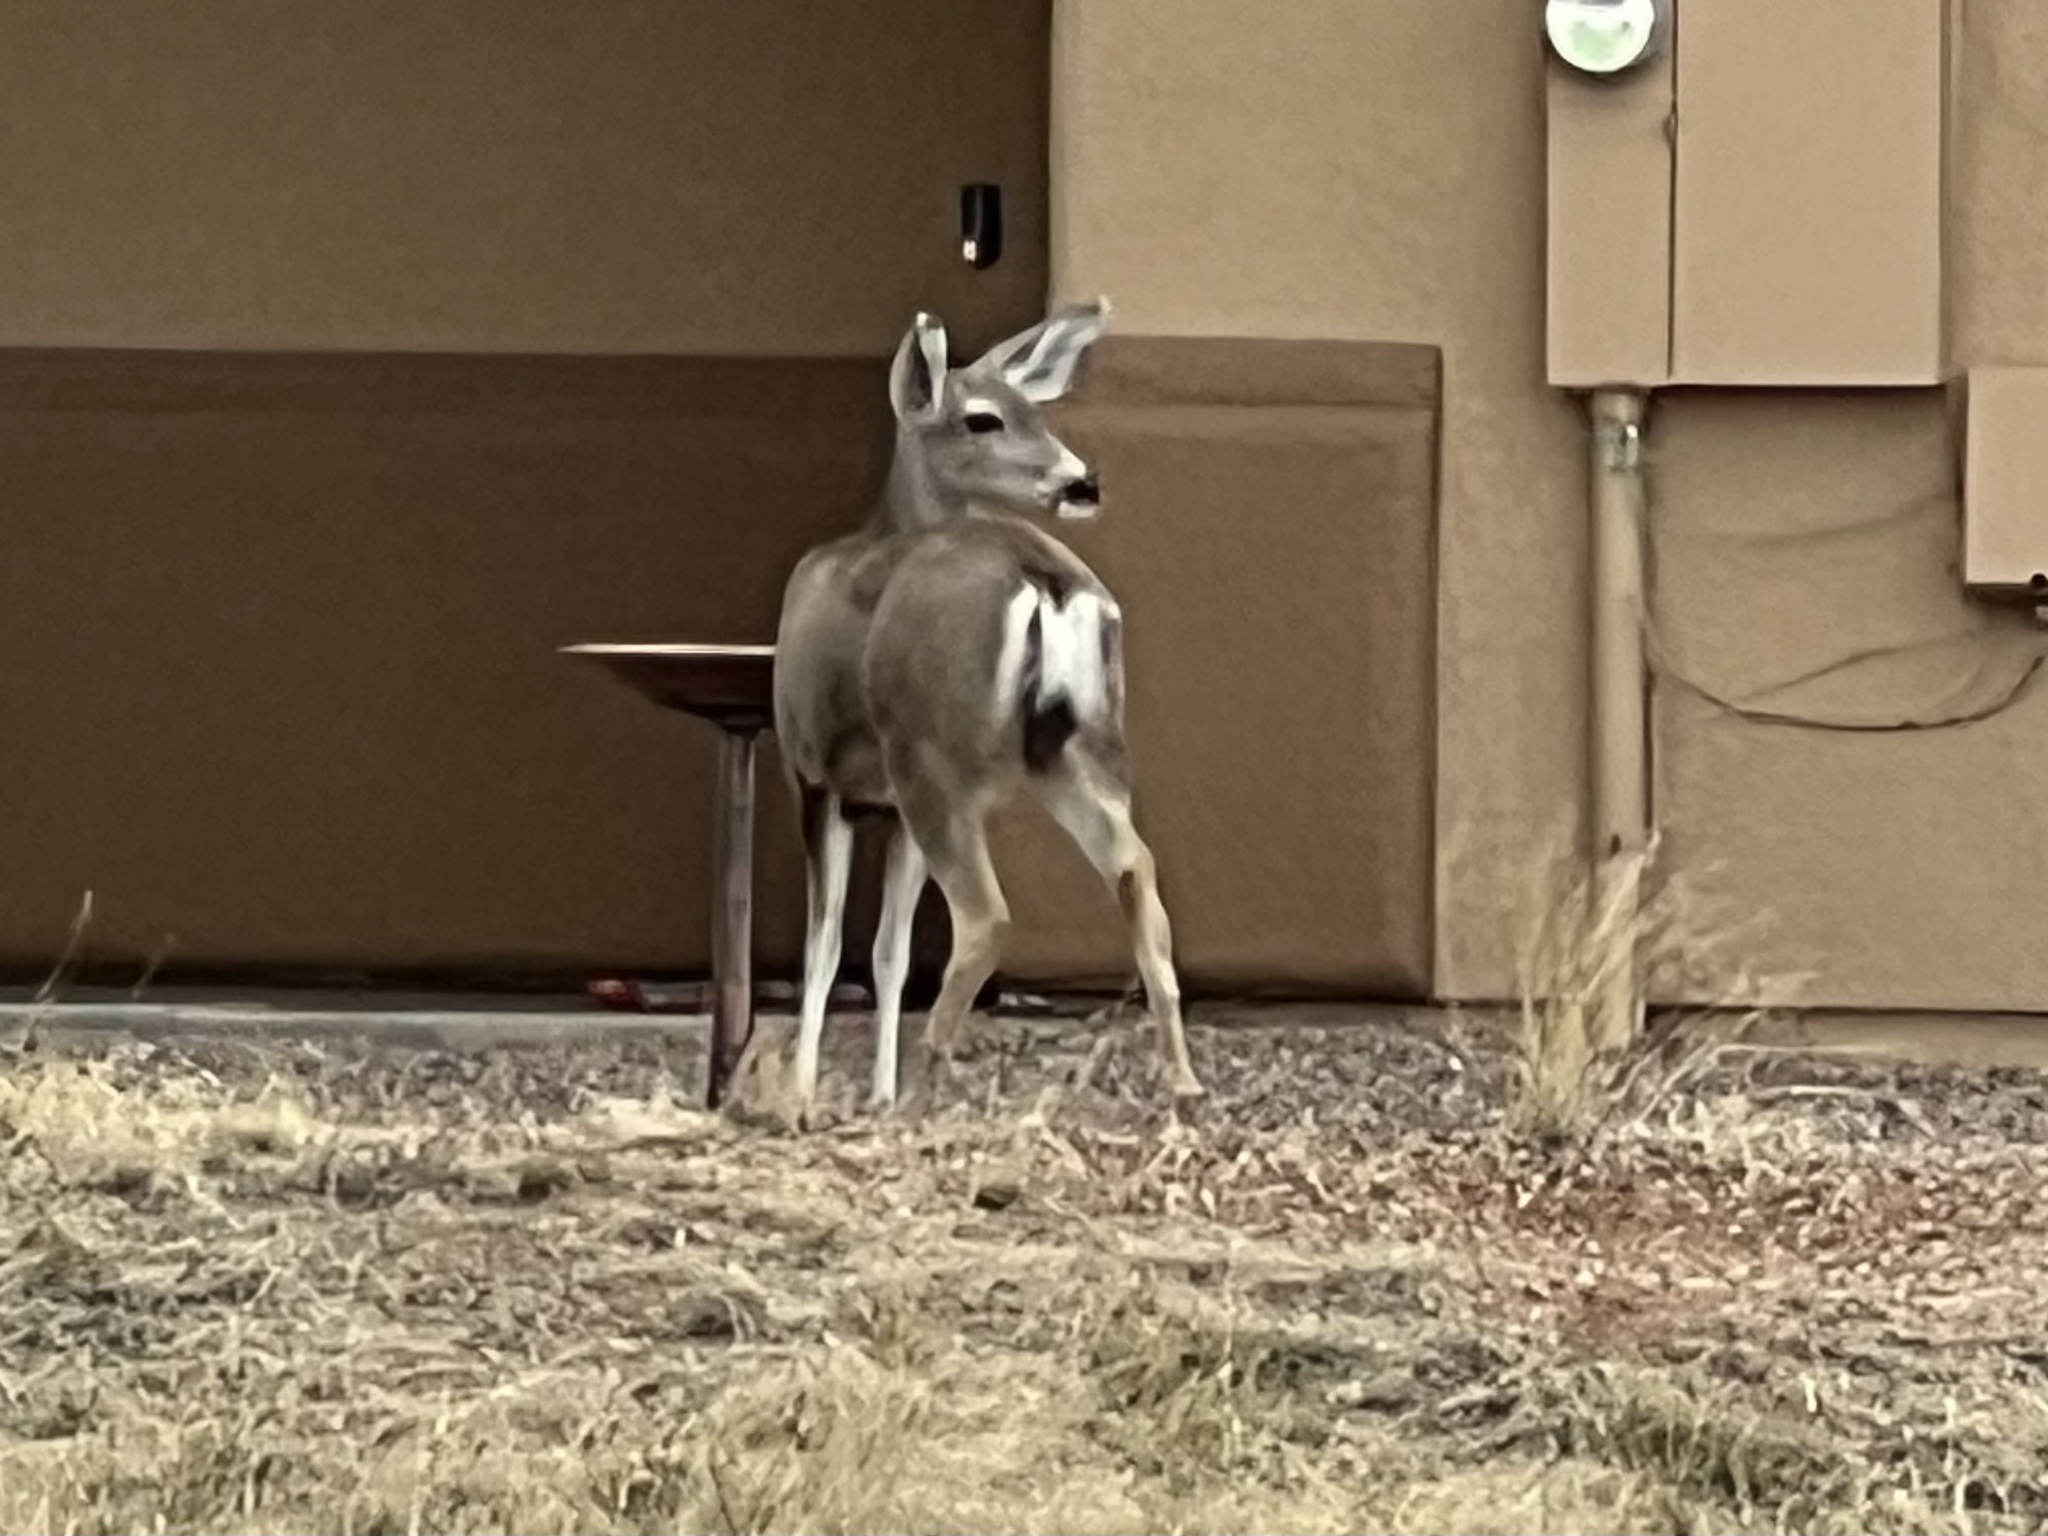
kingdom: Animalia
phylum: Chordata
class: Mammalia
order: Artiodactyla
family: Cervidae
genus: Odocoileus
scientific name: Odocoileus hemionus
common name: Mule deer
